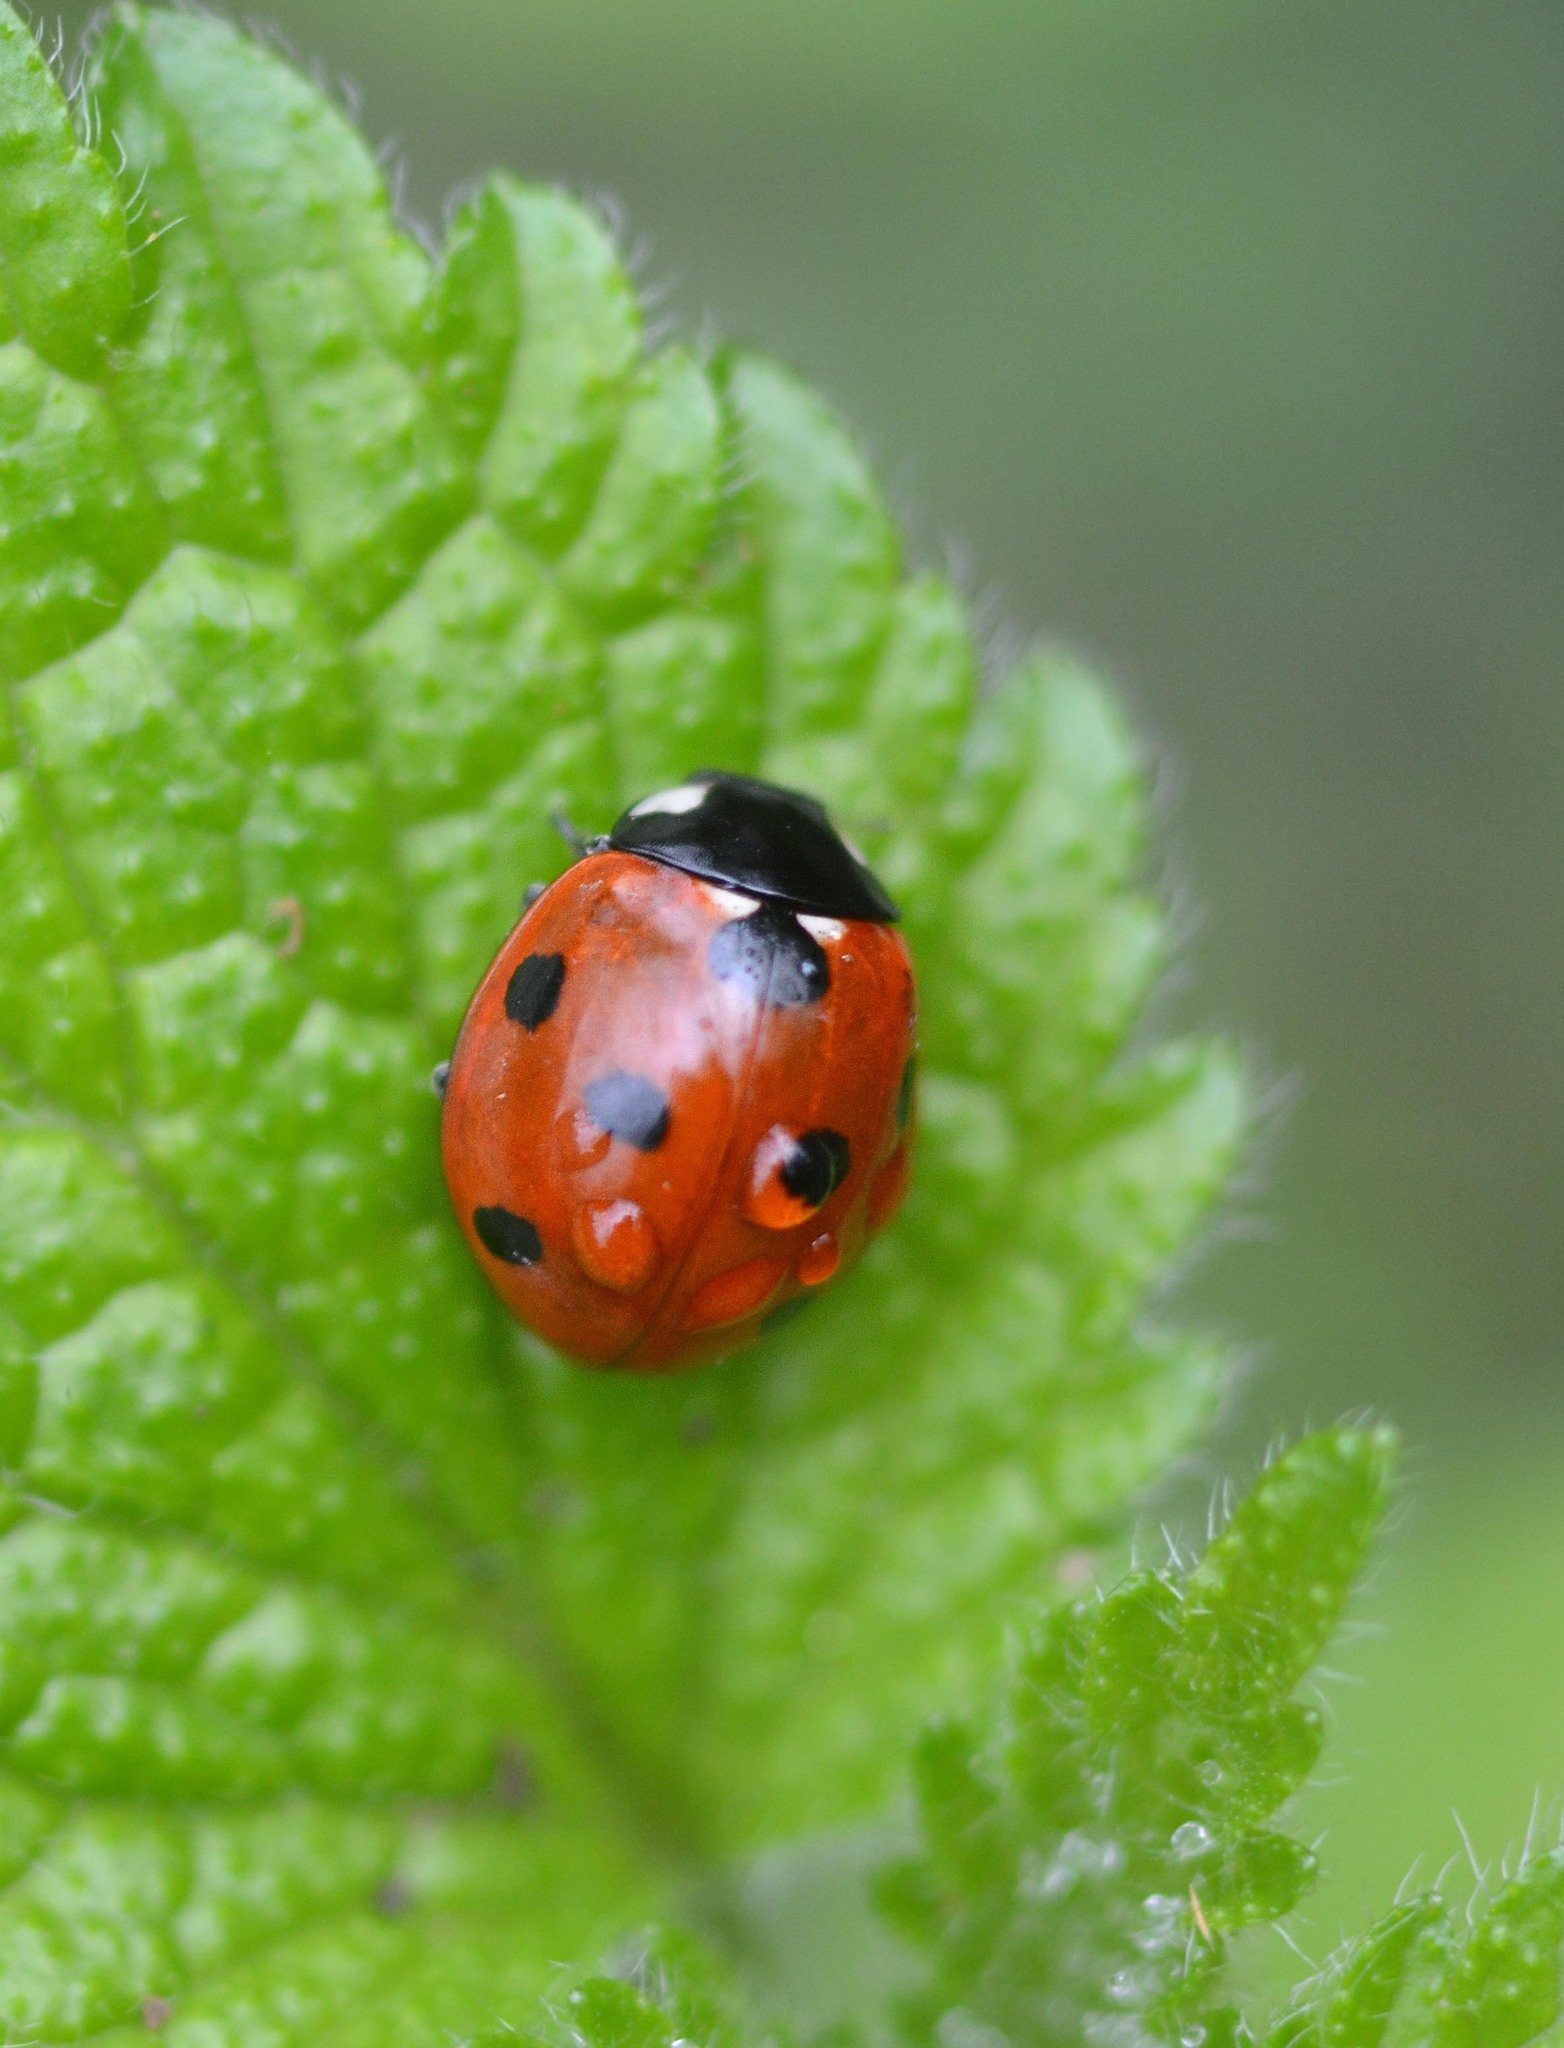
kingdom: Animalia
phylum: Arthropoda
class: Insecta
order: Coleoptera
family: Coccinellidae
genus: Coccinella
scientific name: Coccinella septempunctata
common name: Sevenspotted lady beetle
